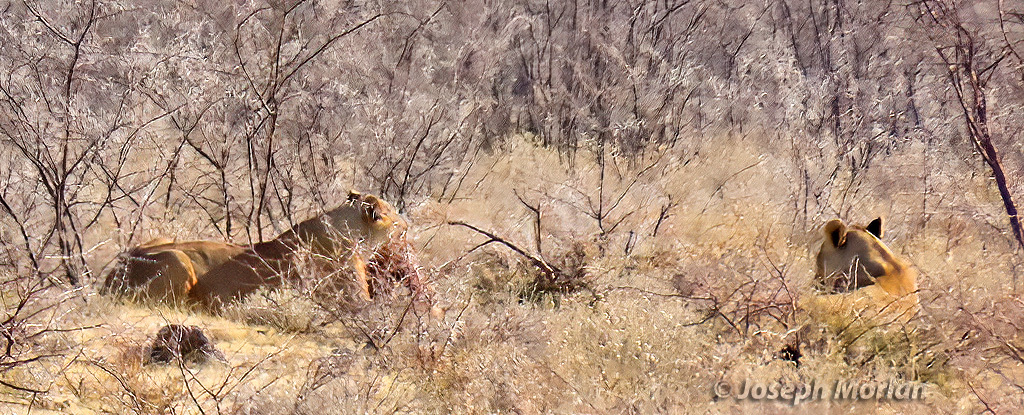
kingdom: Animalia
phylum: Chordata
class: Mammalia
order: Carnivora
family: Felidae
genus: Panthera
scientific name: Panthera leo
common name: Lion
